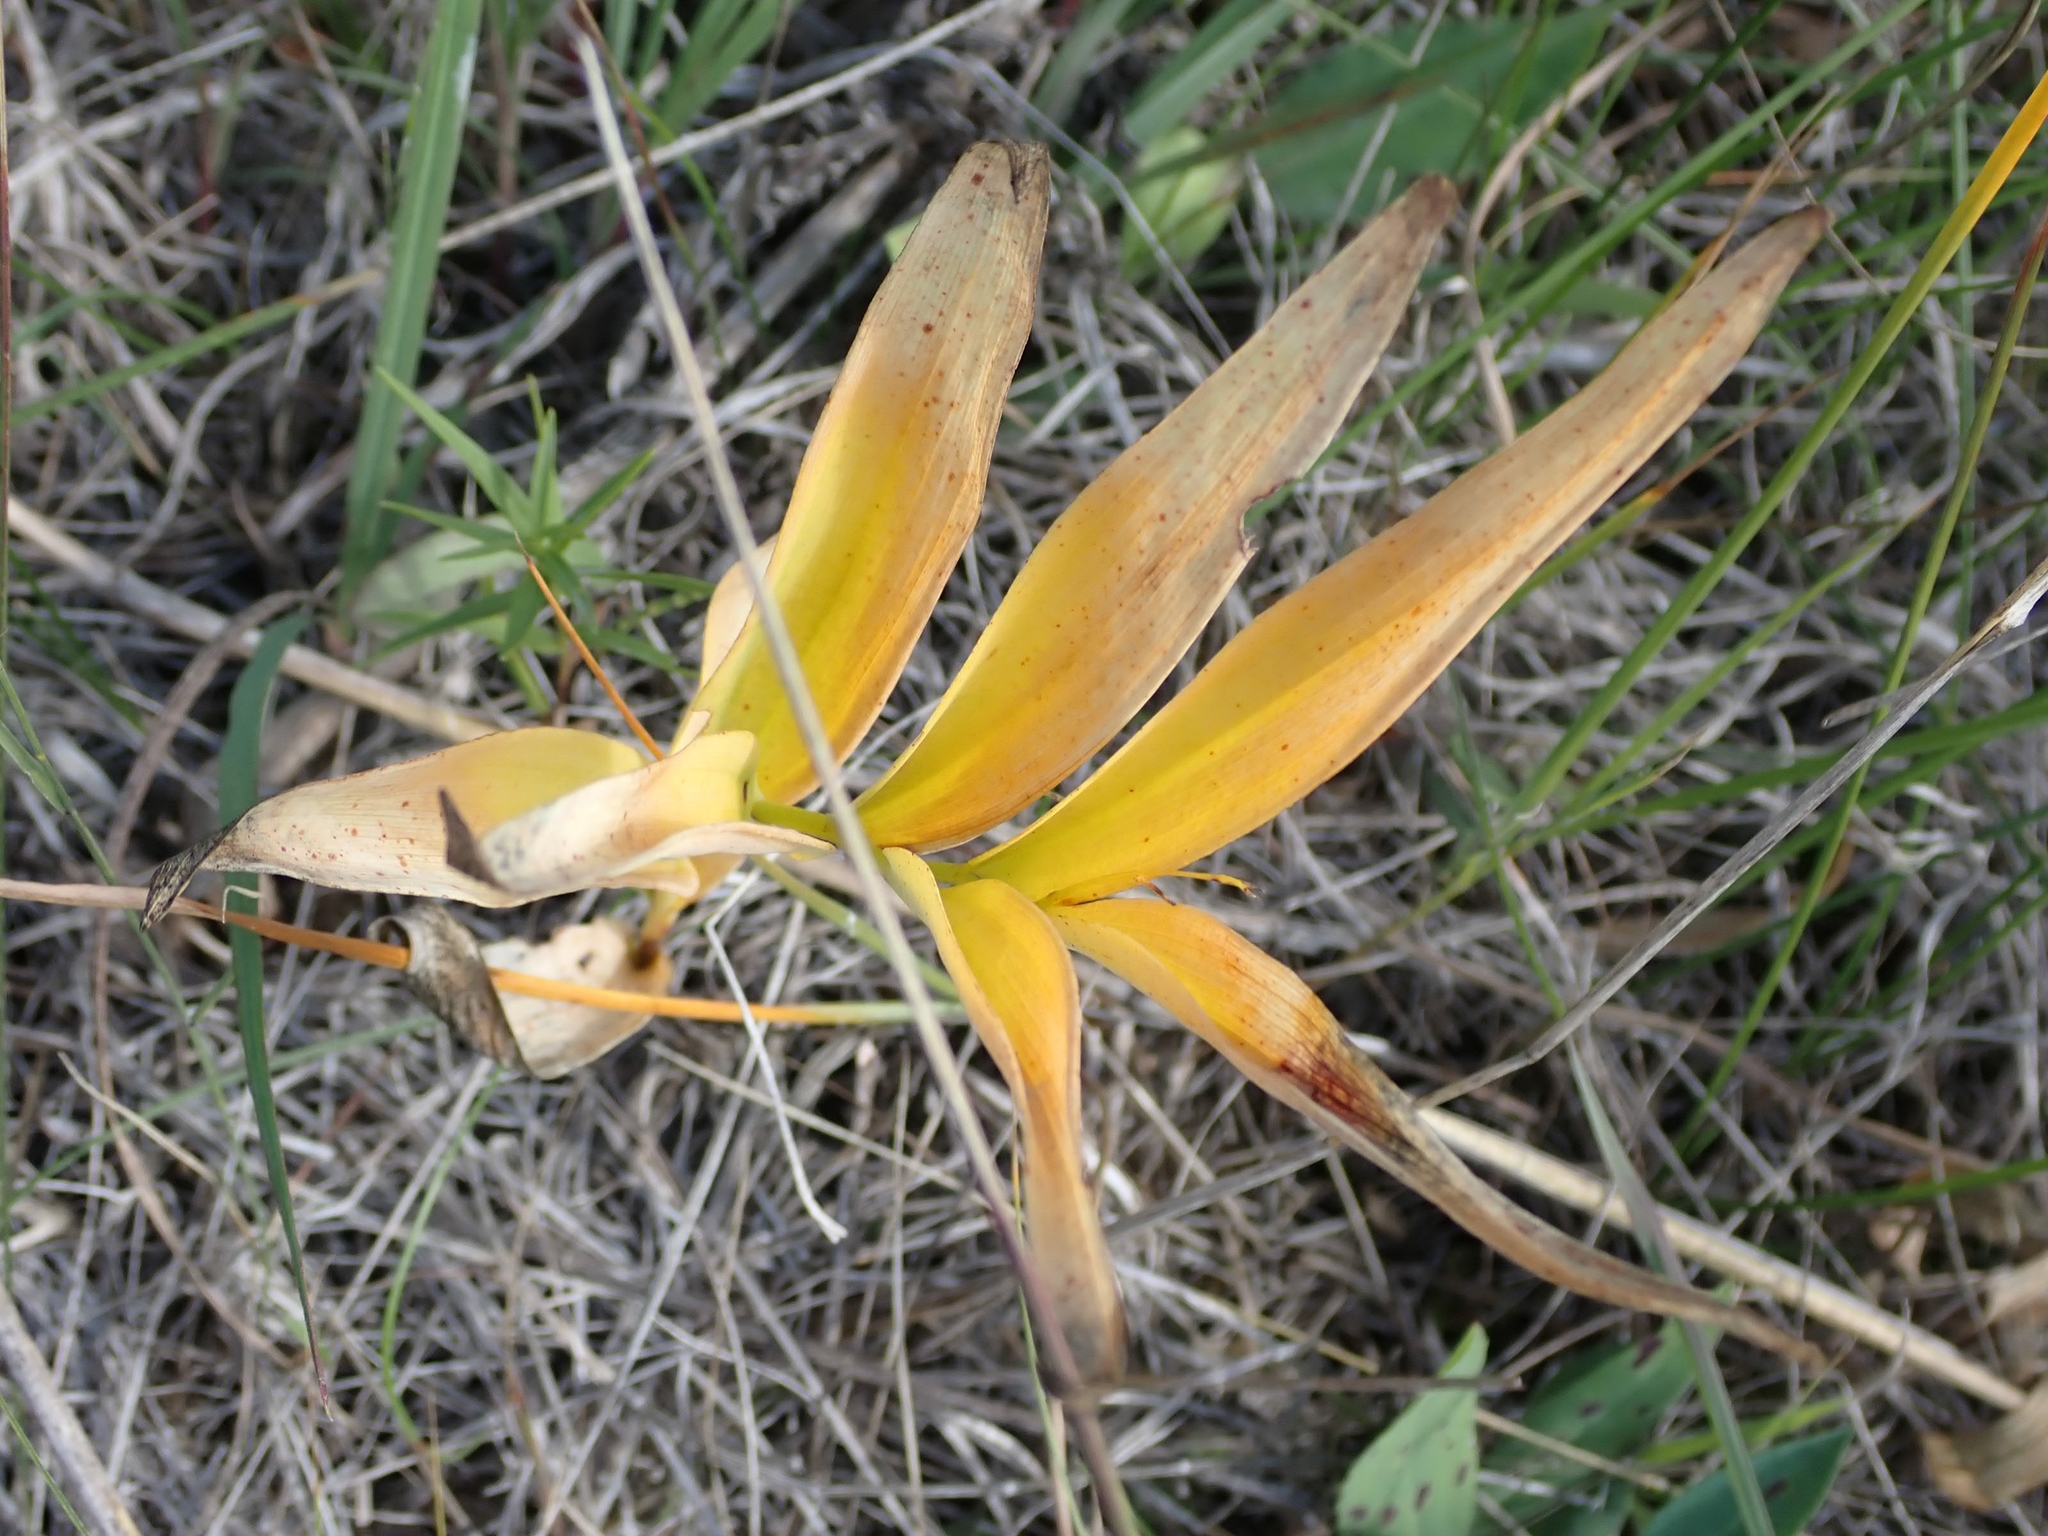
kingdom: Plantae
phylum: Tracheophyta
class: Liliopsida
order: Asparagales
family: Asparagaceae
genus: Maianthemum
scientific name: Maianthemum stellatum
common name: Little false solomon's seal
